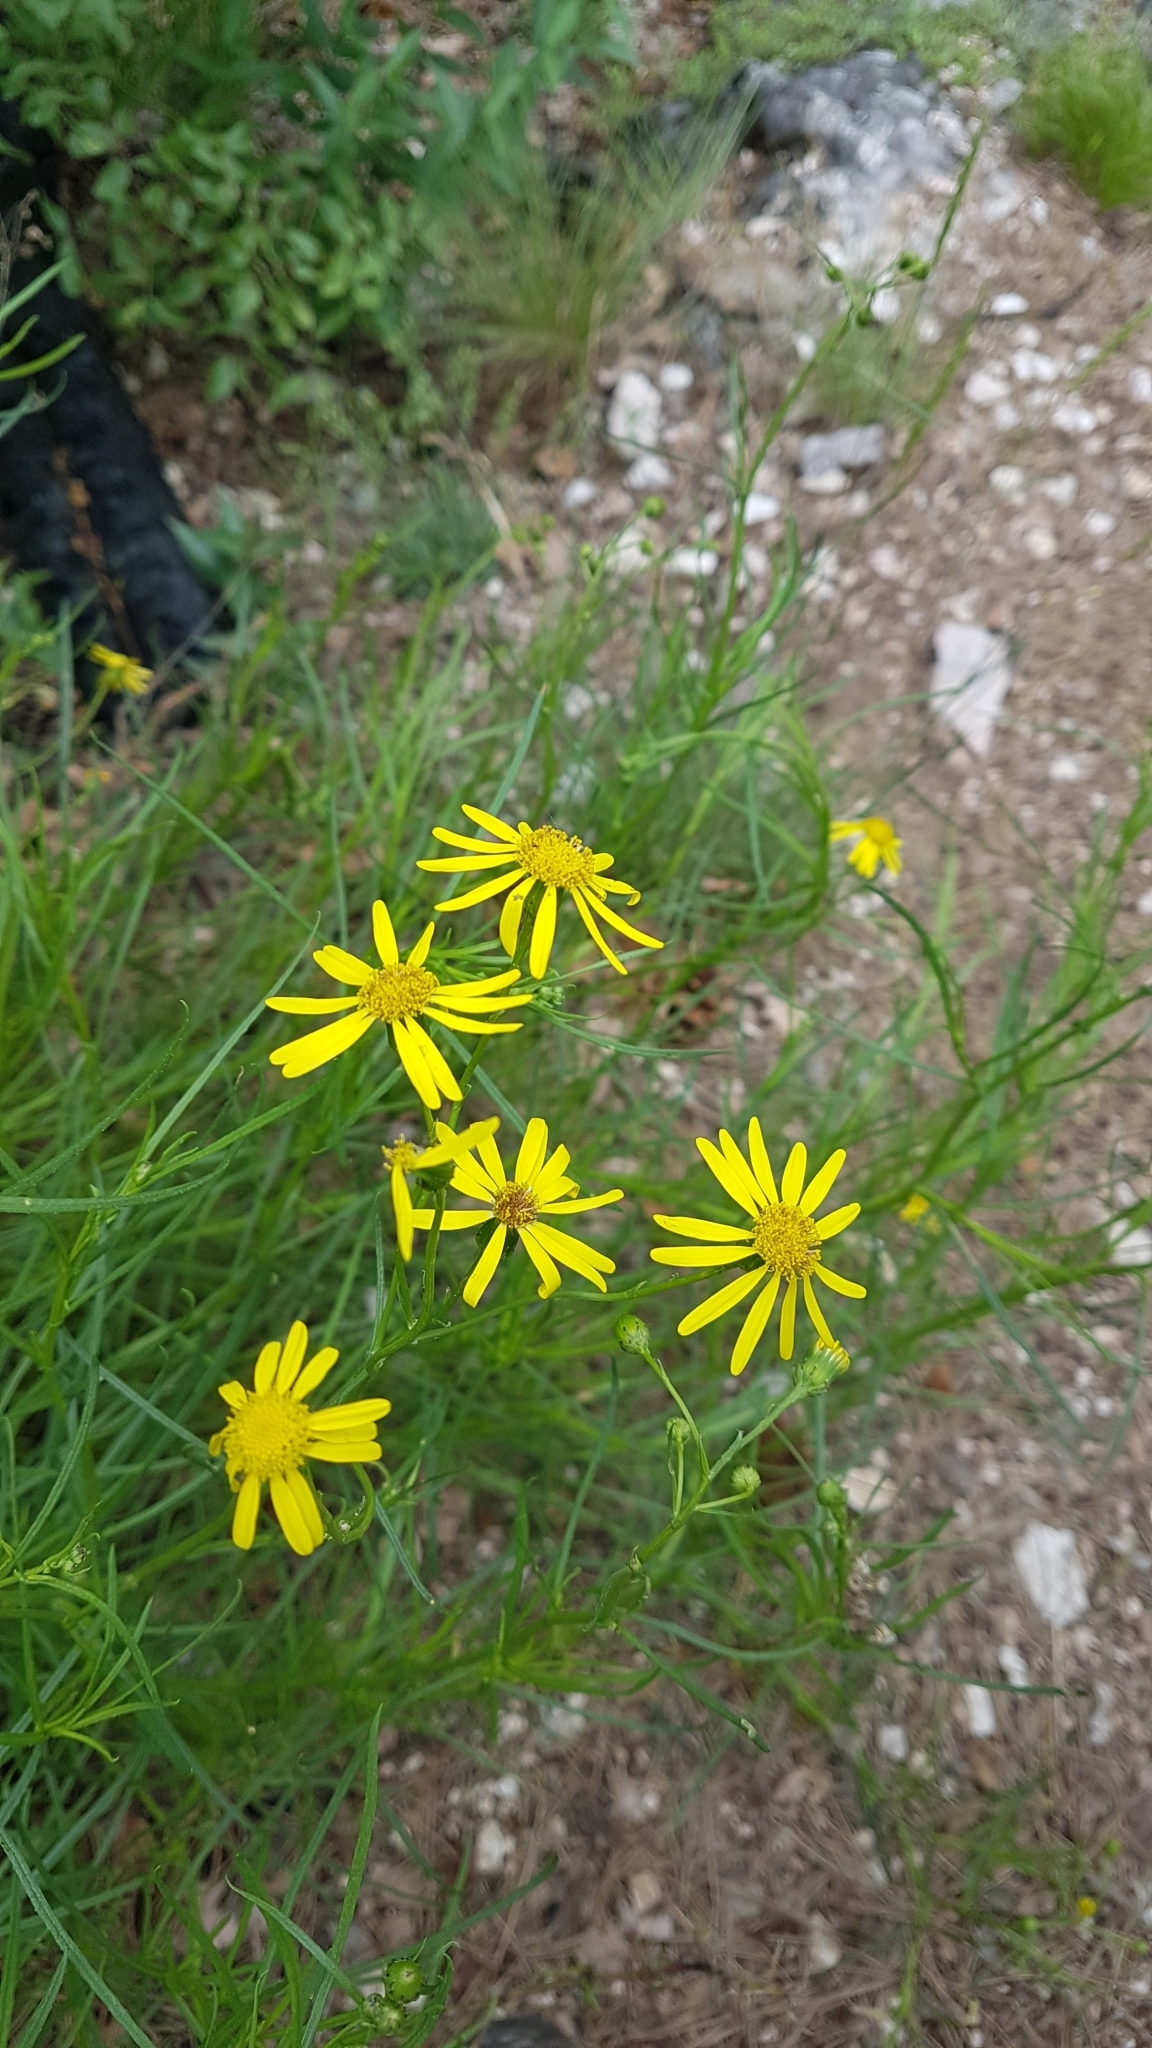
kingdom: Plantae
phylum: Tracheophyta
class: Magnoliopsida
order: Asterales
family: Asteraceae
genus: Senecio
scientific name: Senecio inaequidens
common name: Narrow-leaved ragwort
